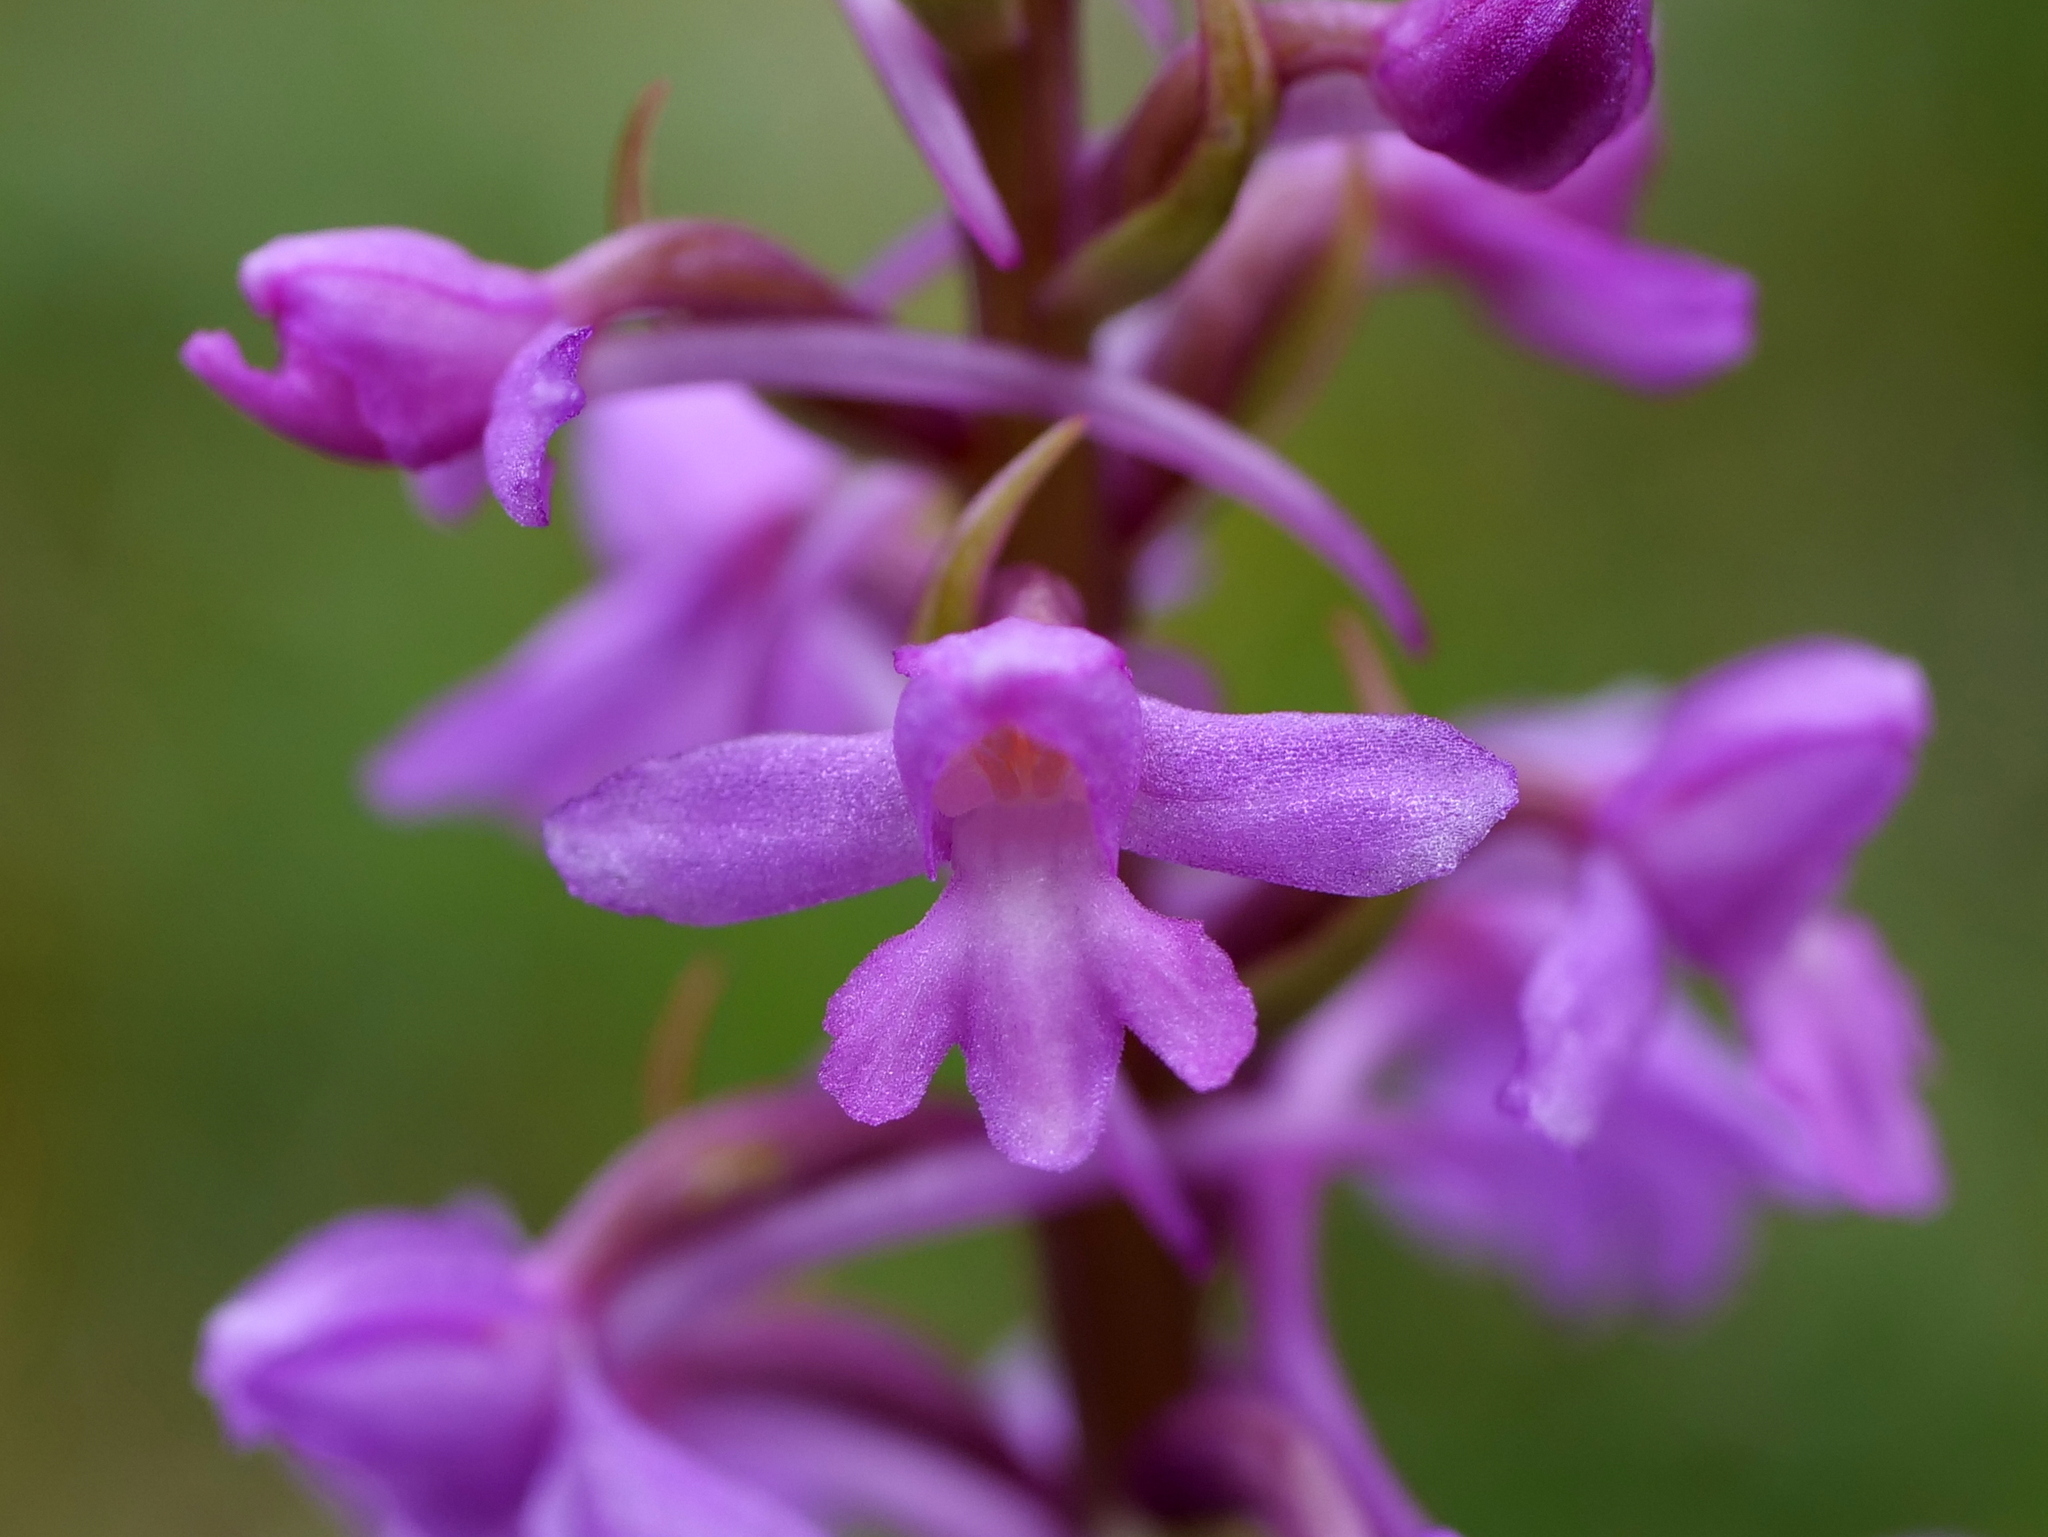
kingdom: Plantae
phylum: Tracheophyta
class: Liliopsida
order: Asparagales
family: Orchidaceae
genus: Gymnadenia
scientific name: Gymnadenia conopsea
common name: Fragrant orchid
